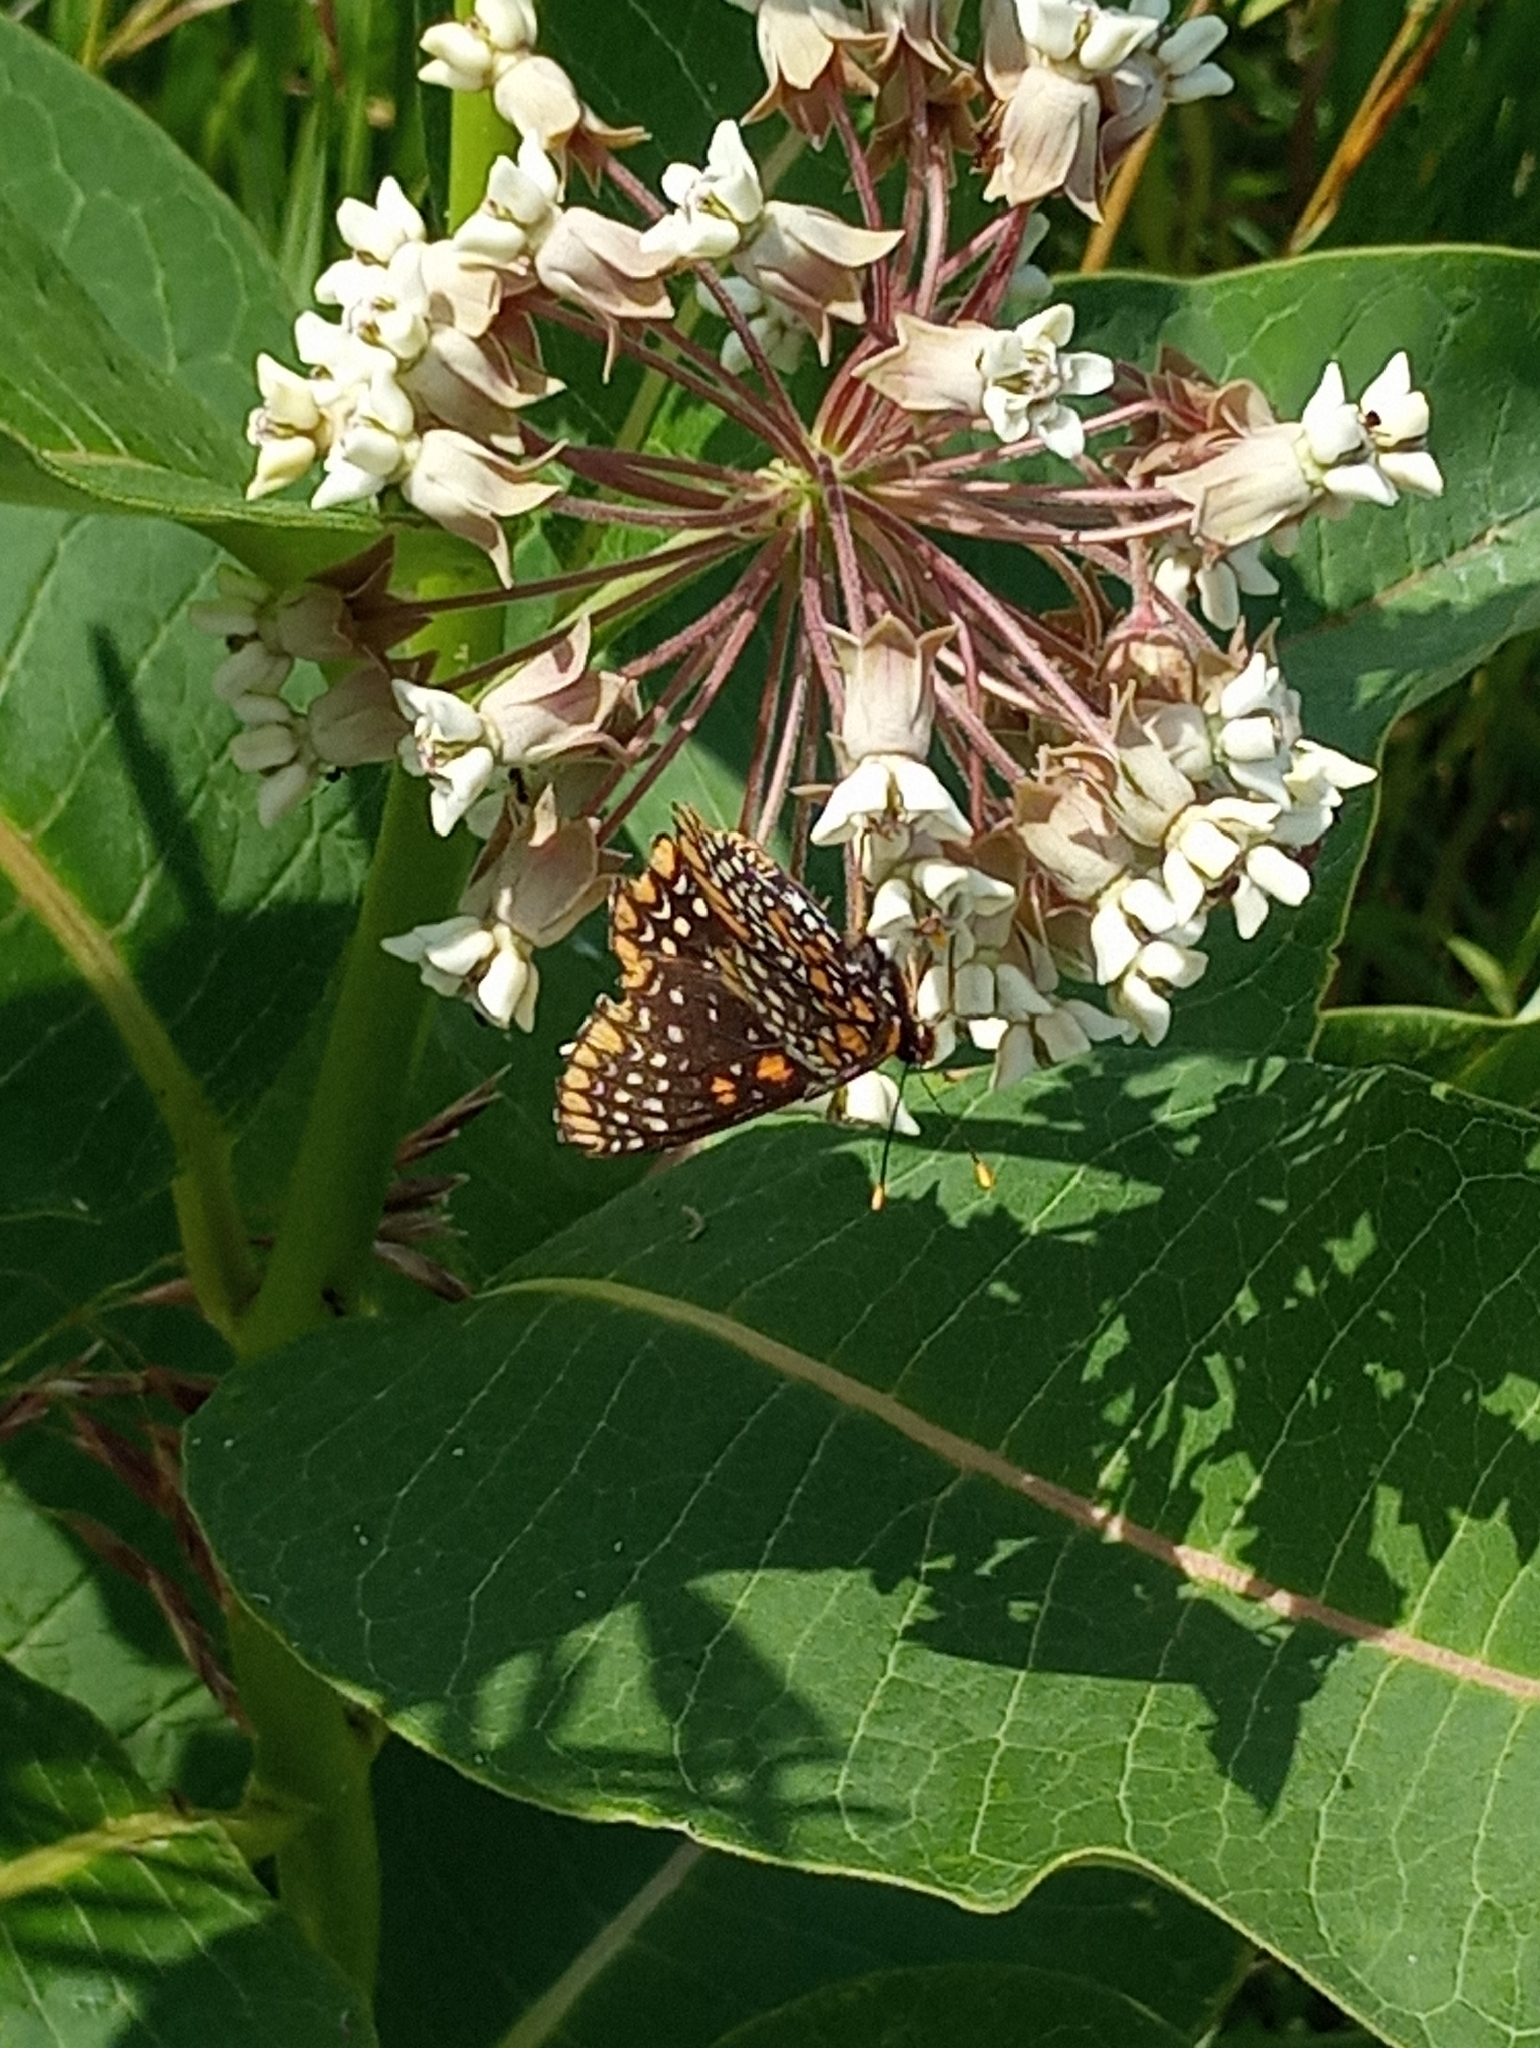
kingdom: Animalia
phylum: Arthropoda
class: Insecta
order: Lepidoptera
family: Nymphalidae
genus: Euphydryas
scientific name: Euphydryas phaeton
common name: Baltimore checkerspot
